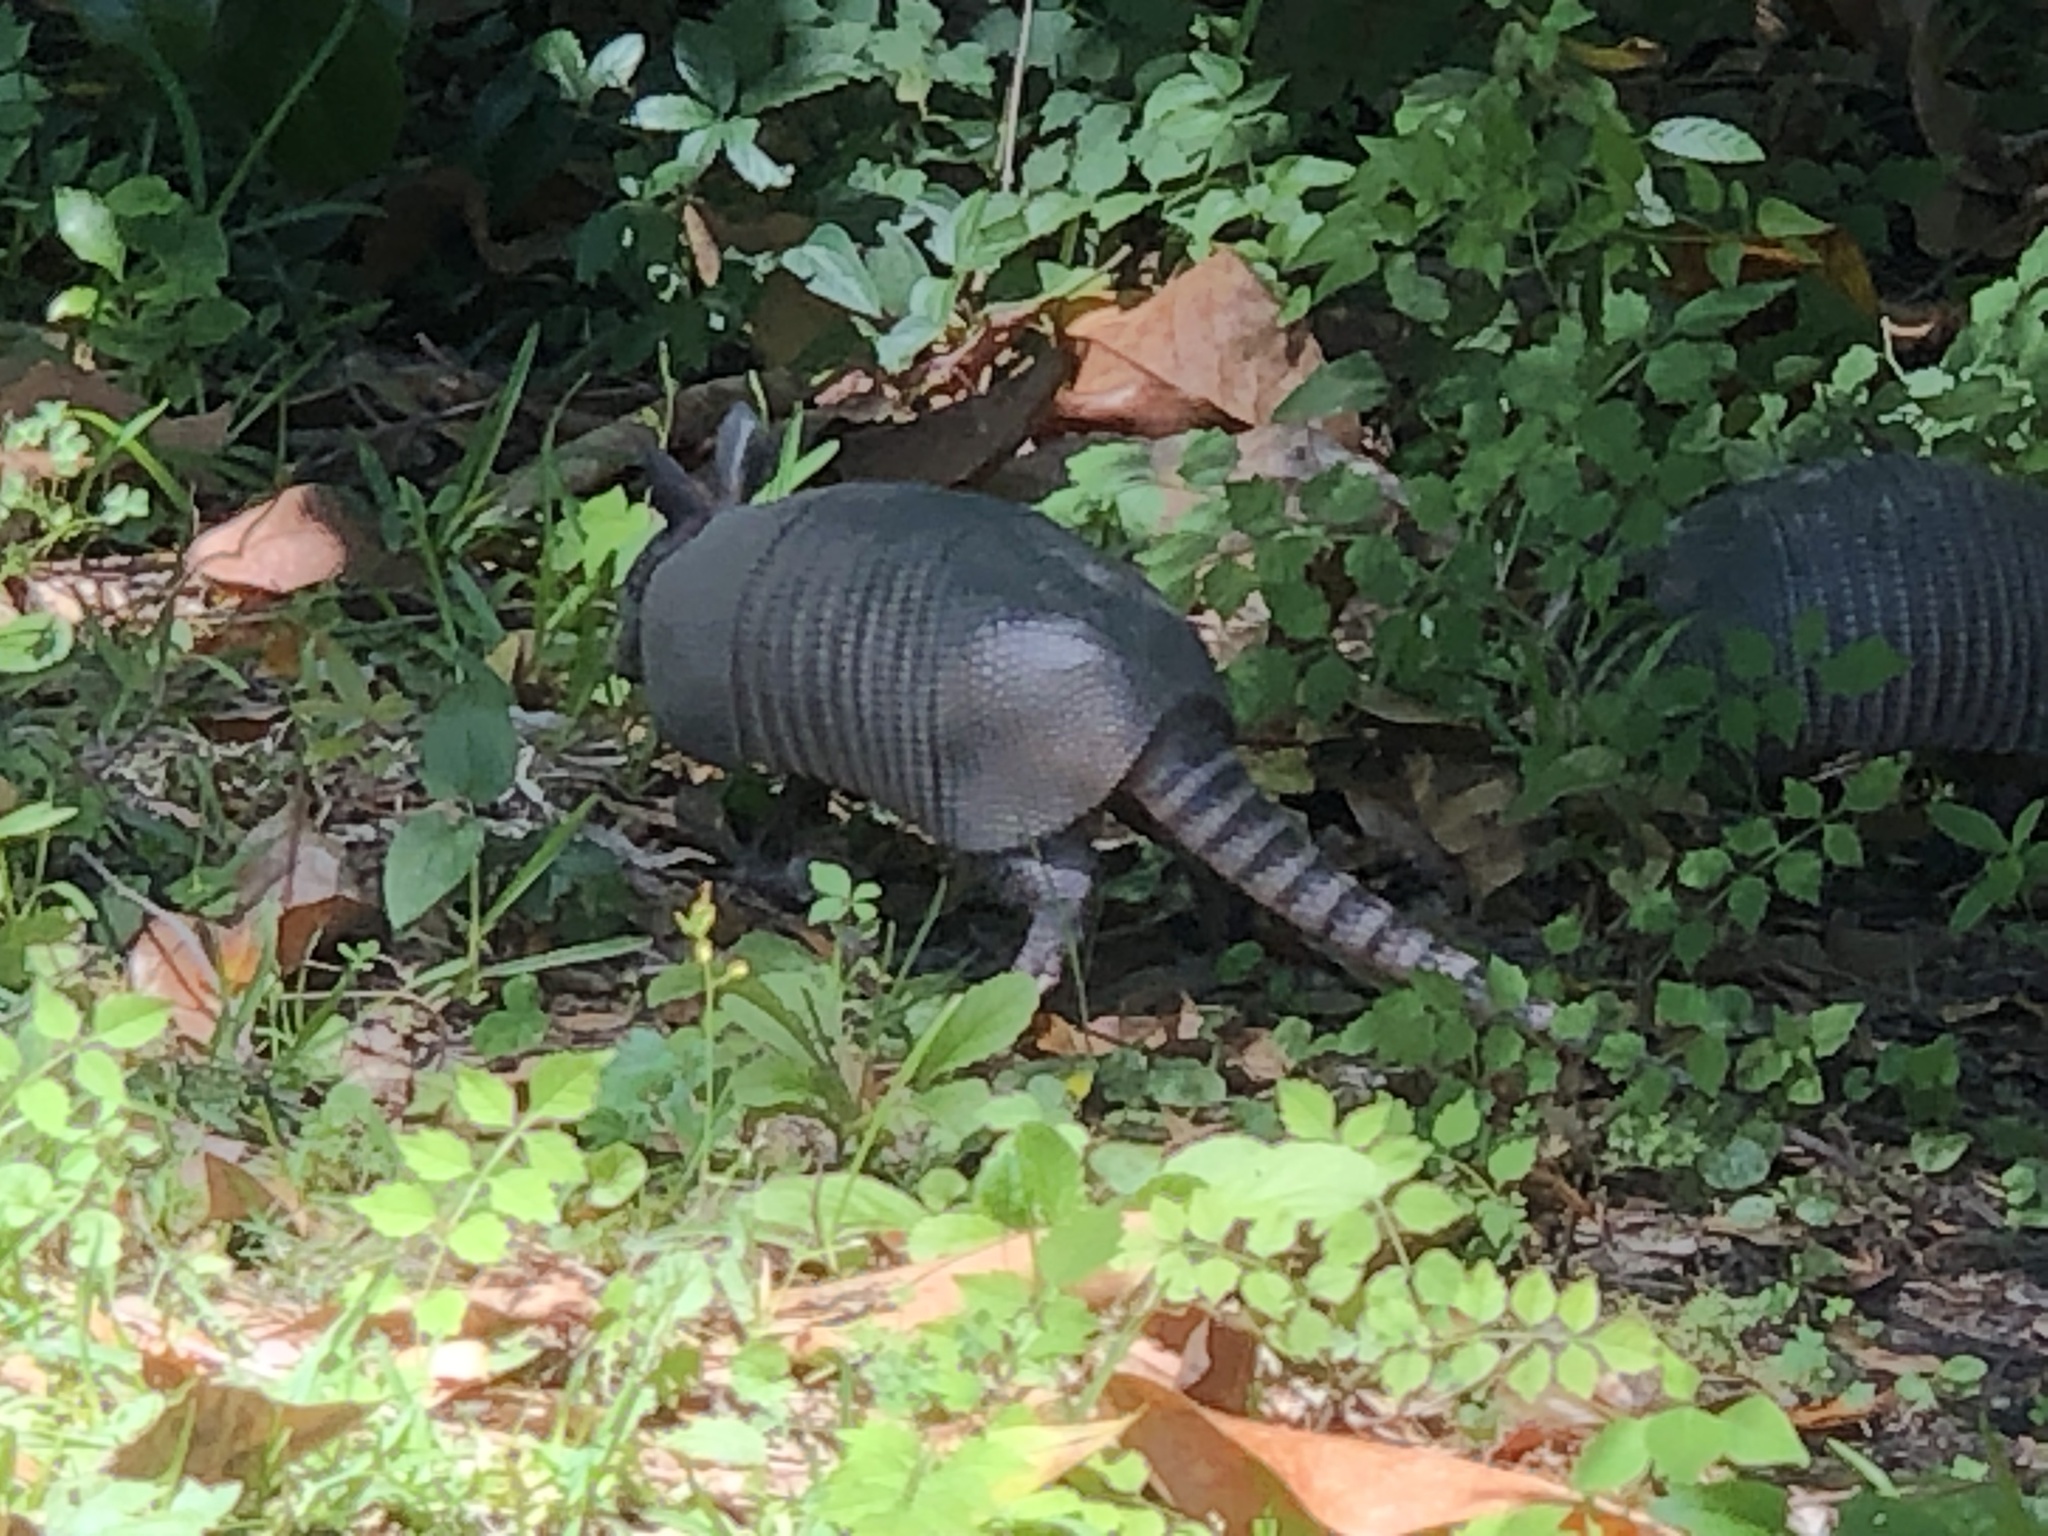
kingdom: Animalia
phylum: Chordata
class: Mammalia
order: Cingulata
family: Dasypodidae
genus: Dasypus
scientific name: Dasypus novemcinctus
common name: Nine-banded armadillo
